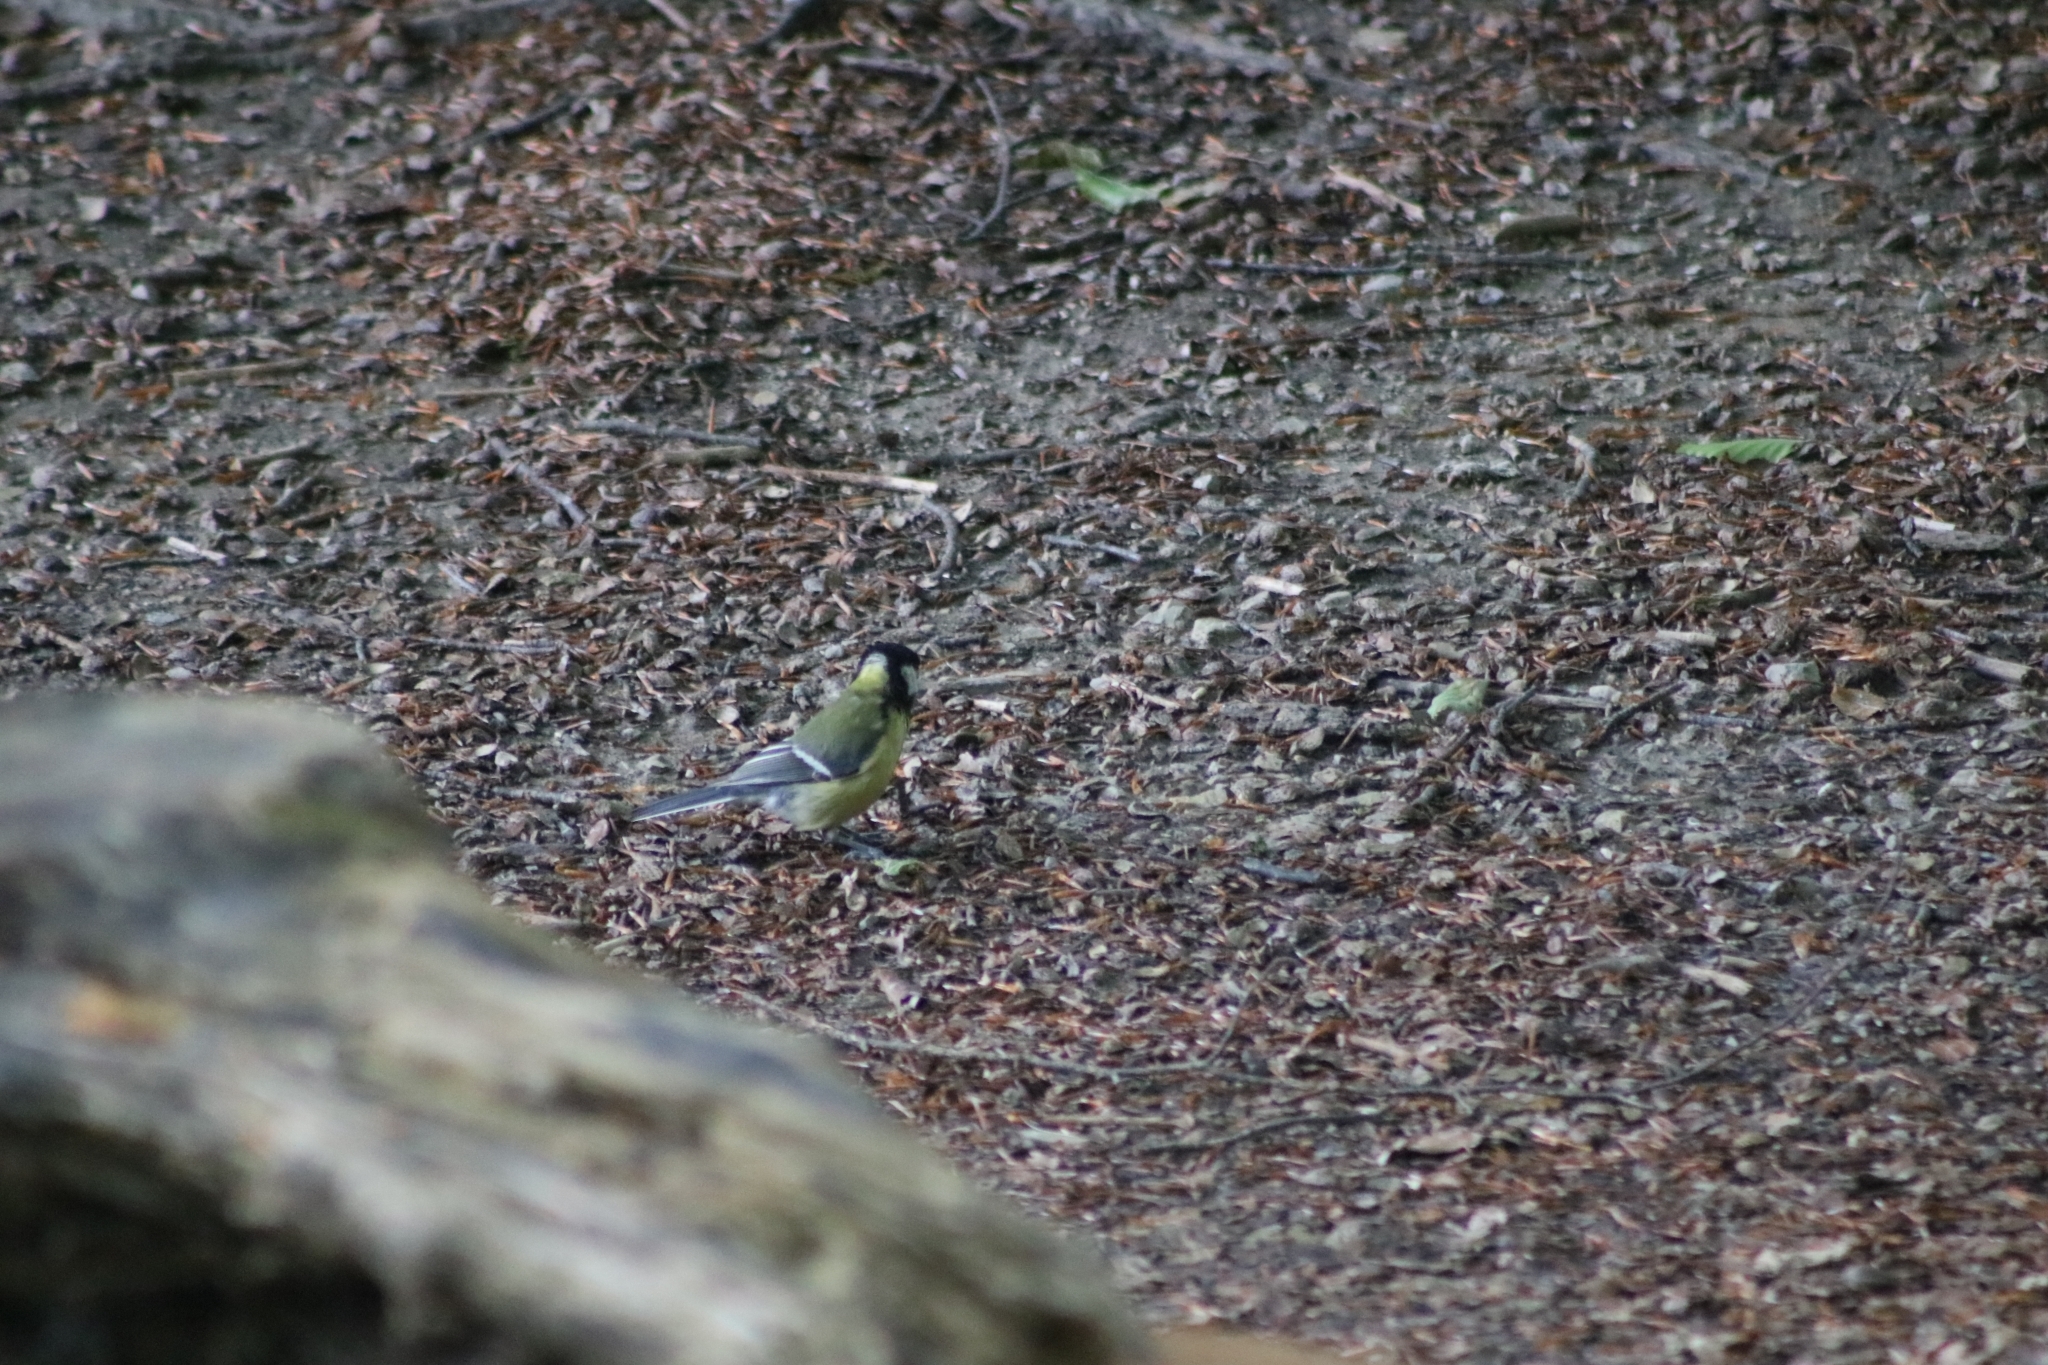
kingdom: Animalia
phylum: Chordata
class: Aves
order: Passeriformes
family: Paridae
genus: Parus
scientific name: Parus major
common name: Great tit
